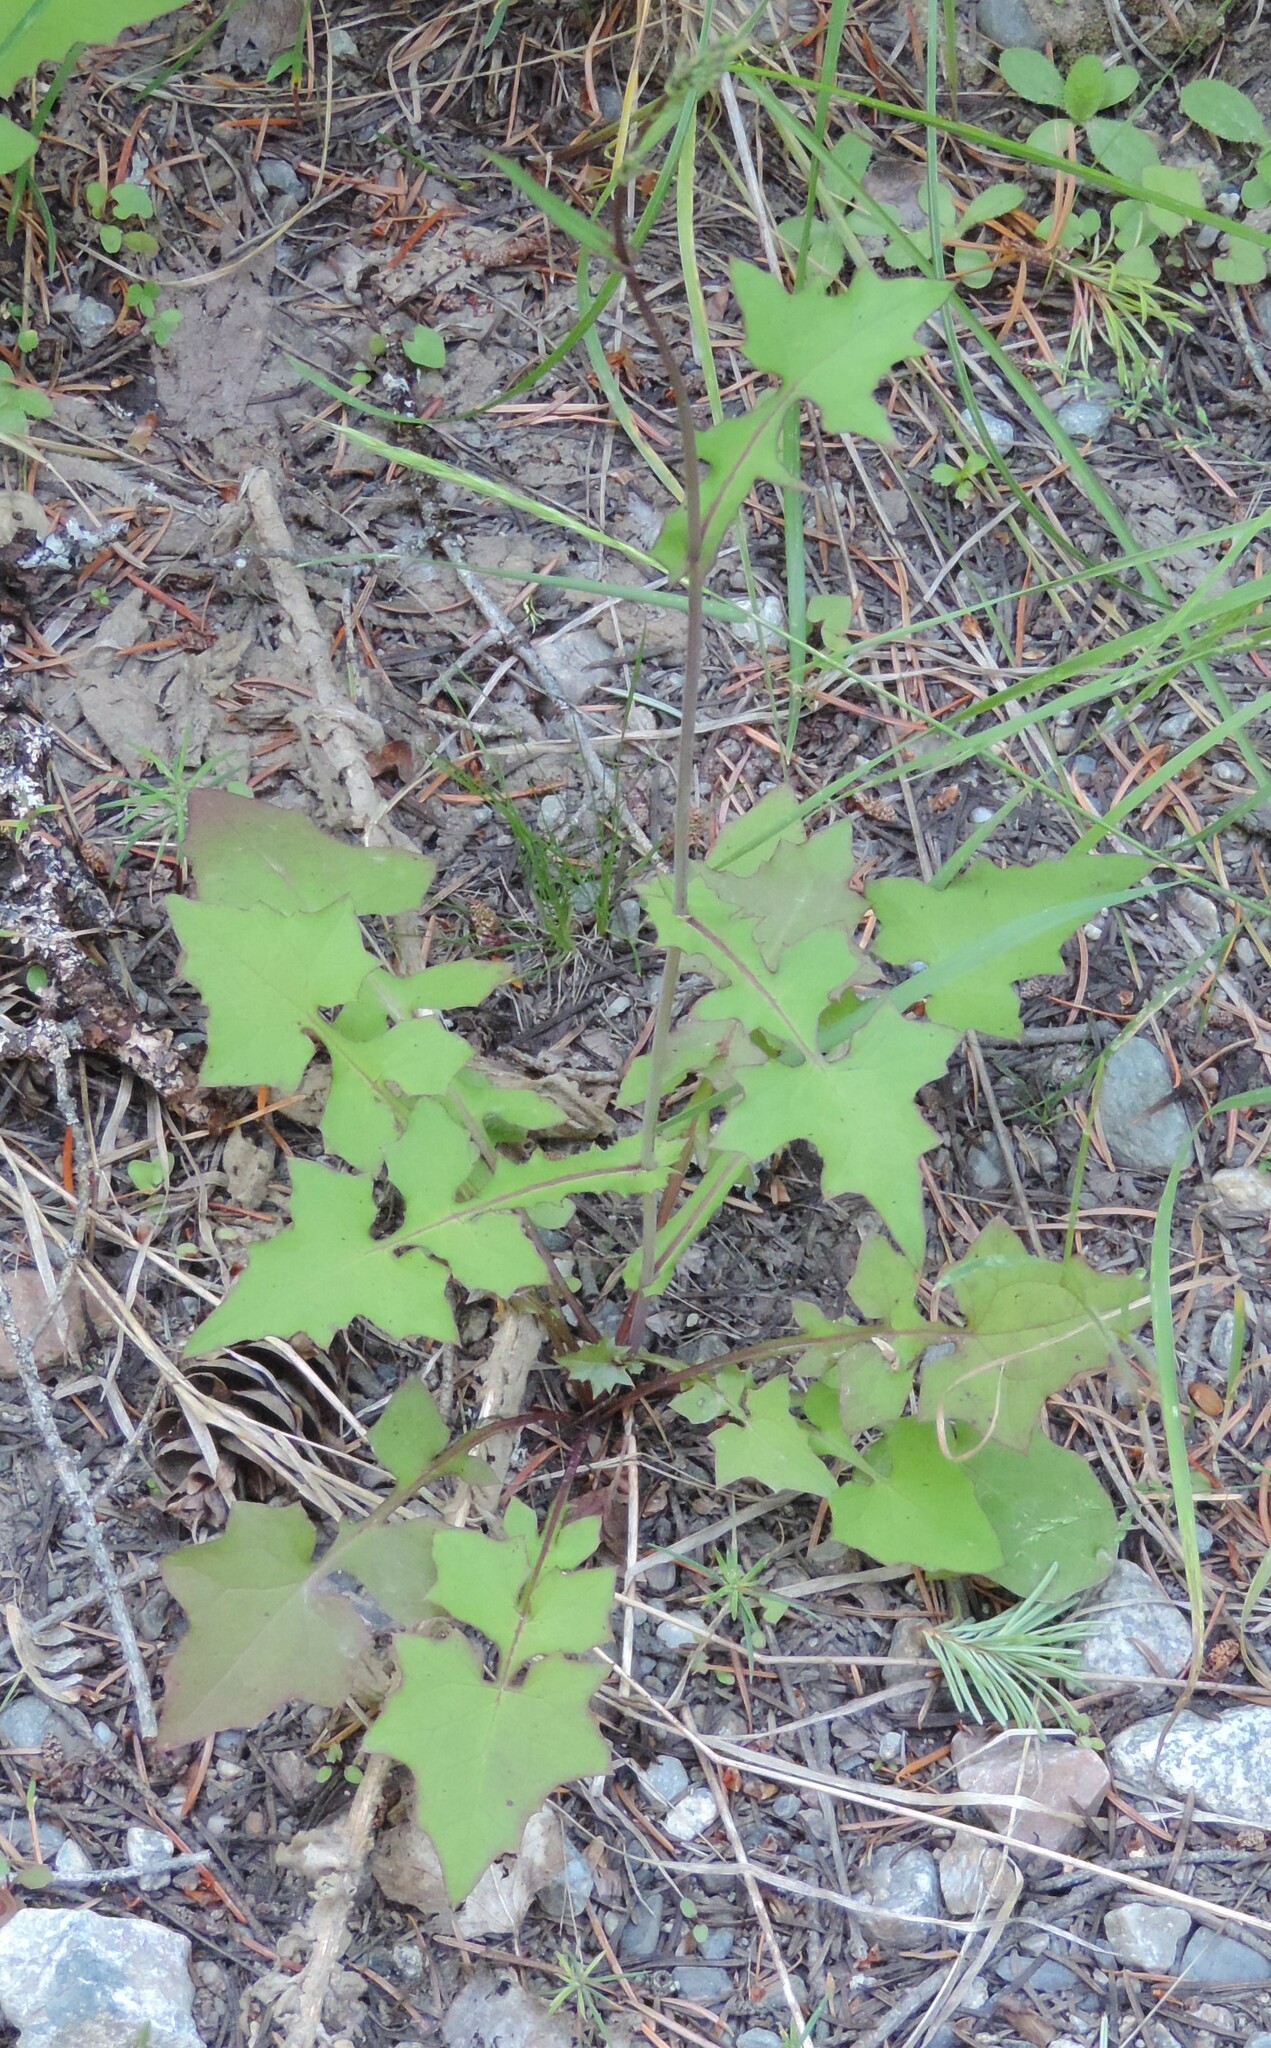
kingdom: Plantae
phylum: Tracheophyta
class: Magnoliopsida
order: Asterales
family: Asteraceae
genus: Mycelis
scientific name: Mycelis muralis
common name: Wall lettuce
